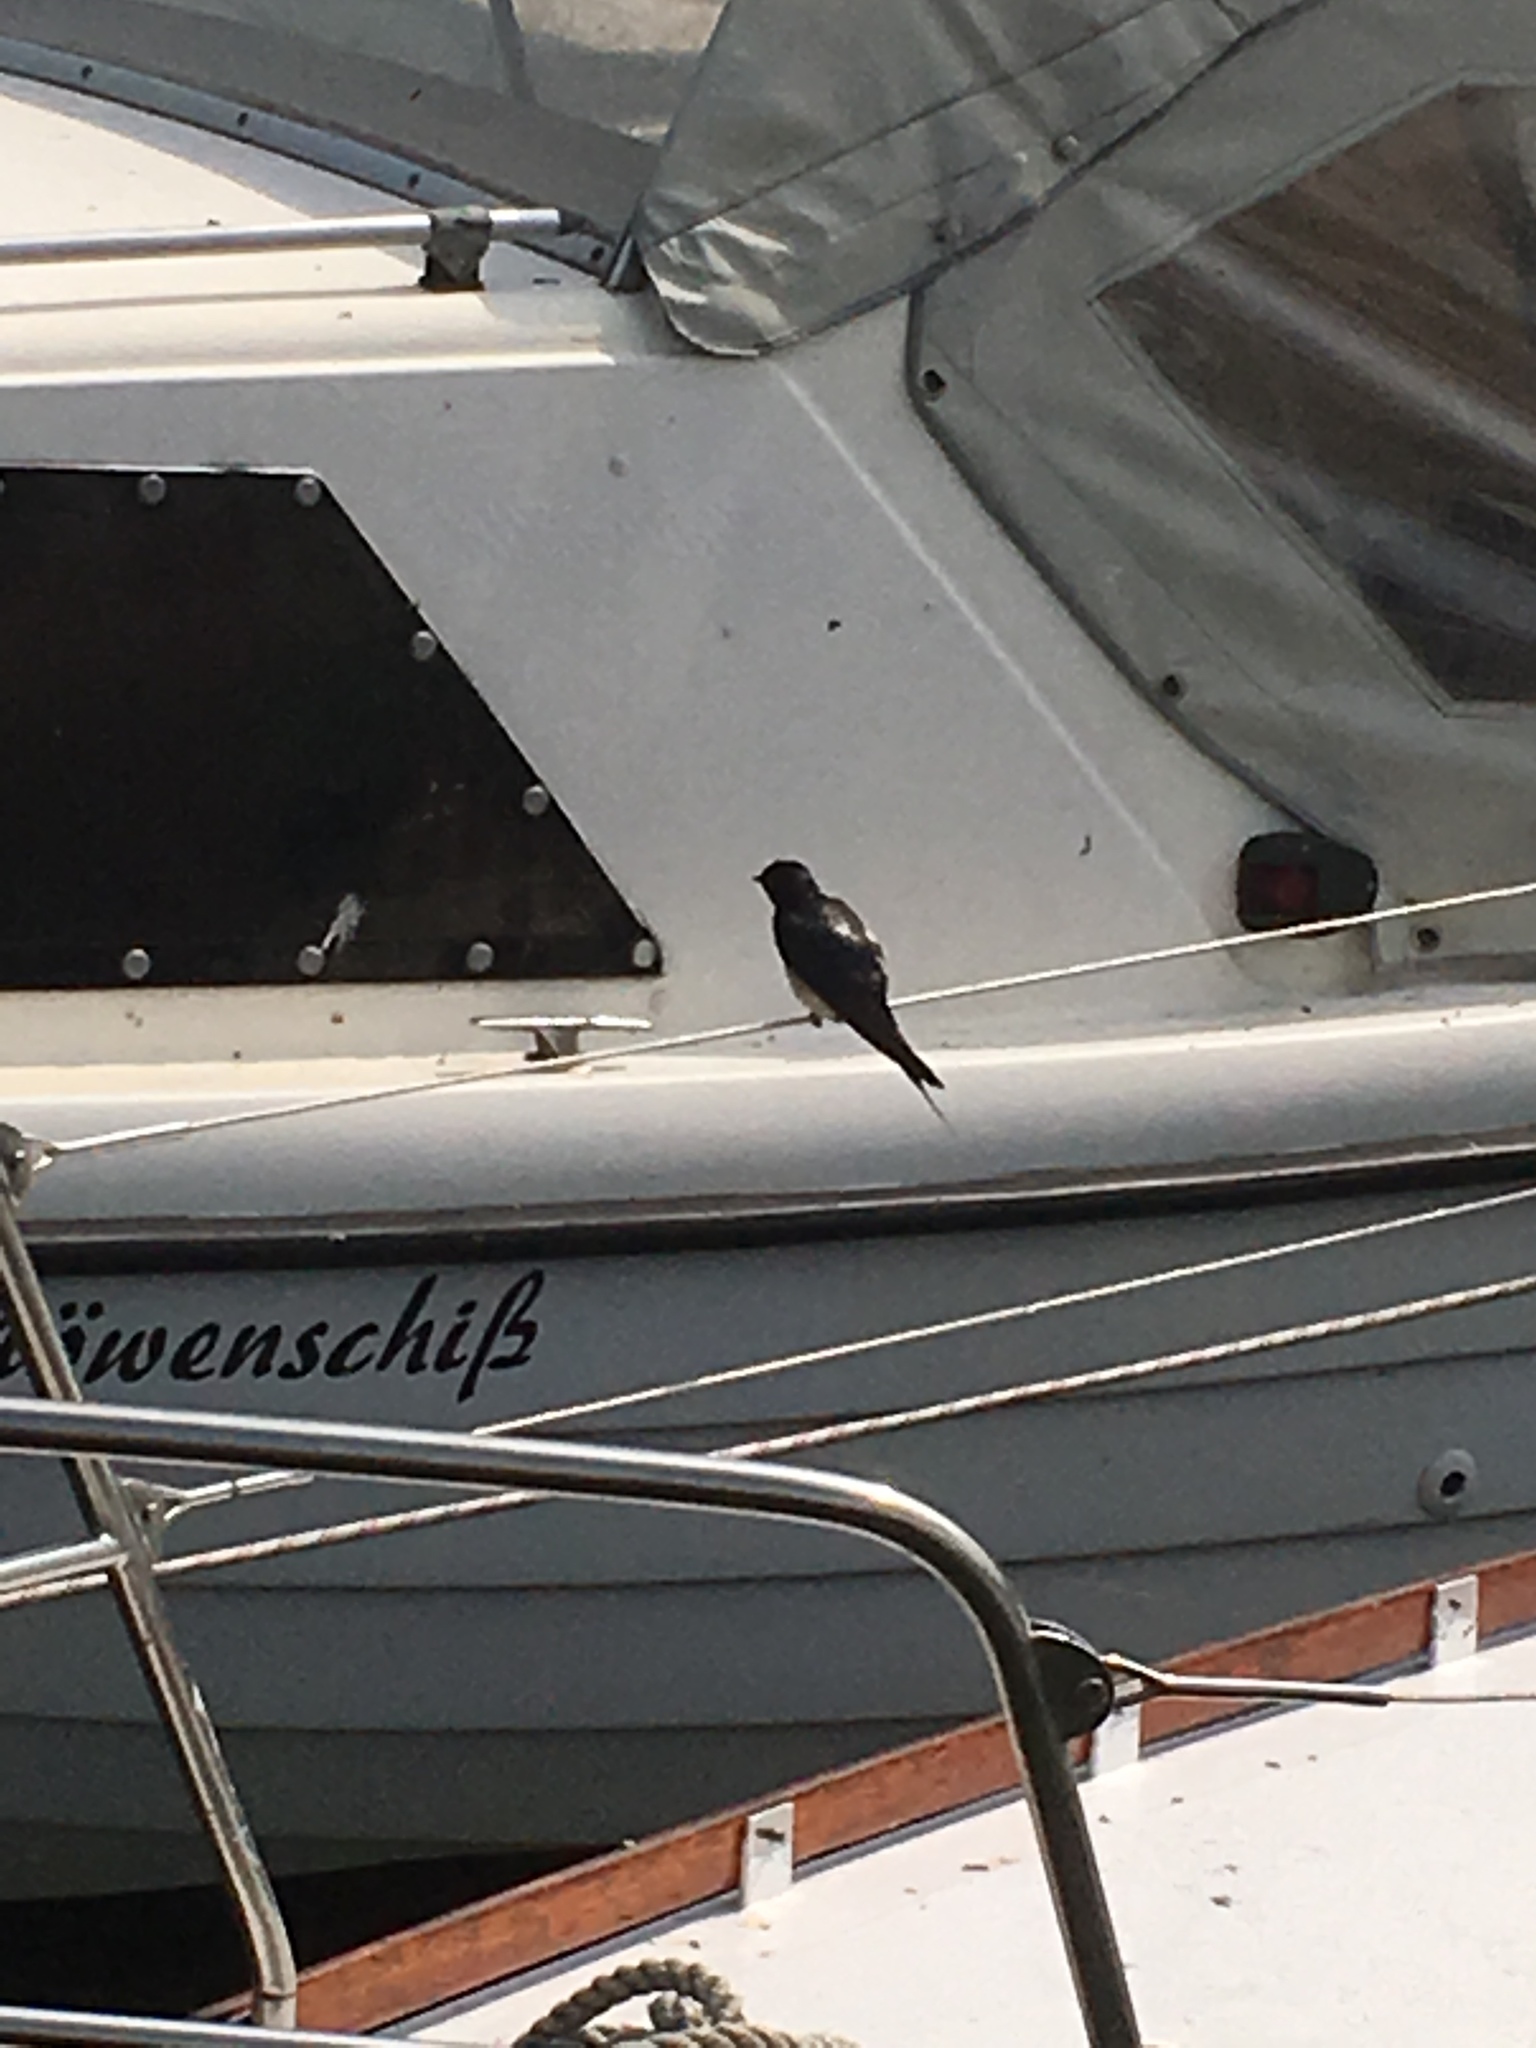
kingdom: Animalia
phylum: Chordata
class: Aves
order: Passeriformes
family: Hirundinidae
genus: Hirundo
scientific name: Hirundo rustica
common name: Barn swallow
